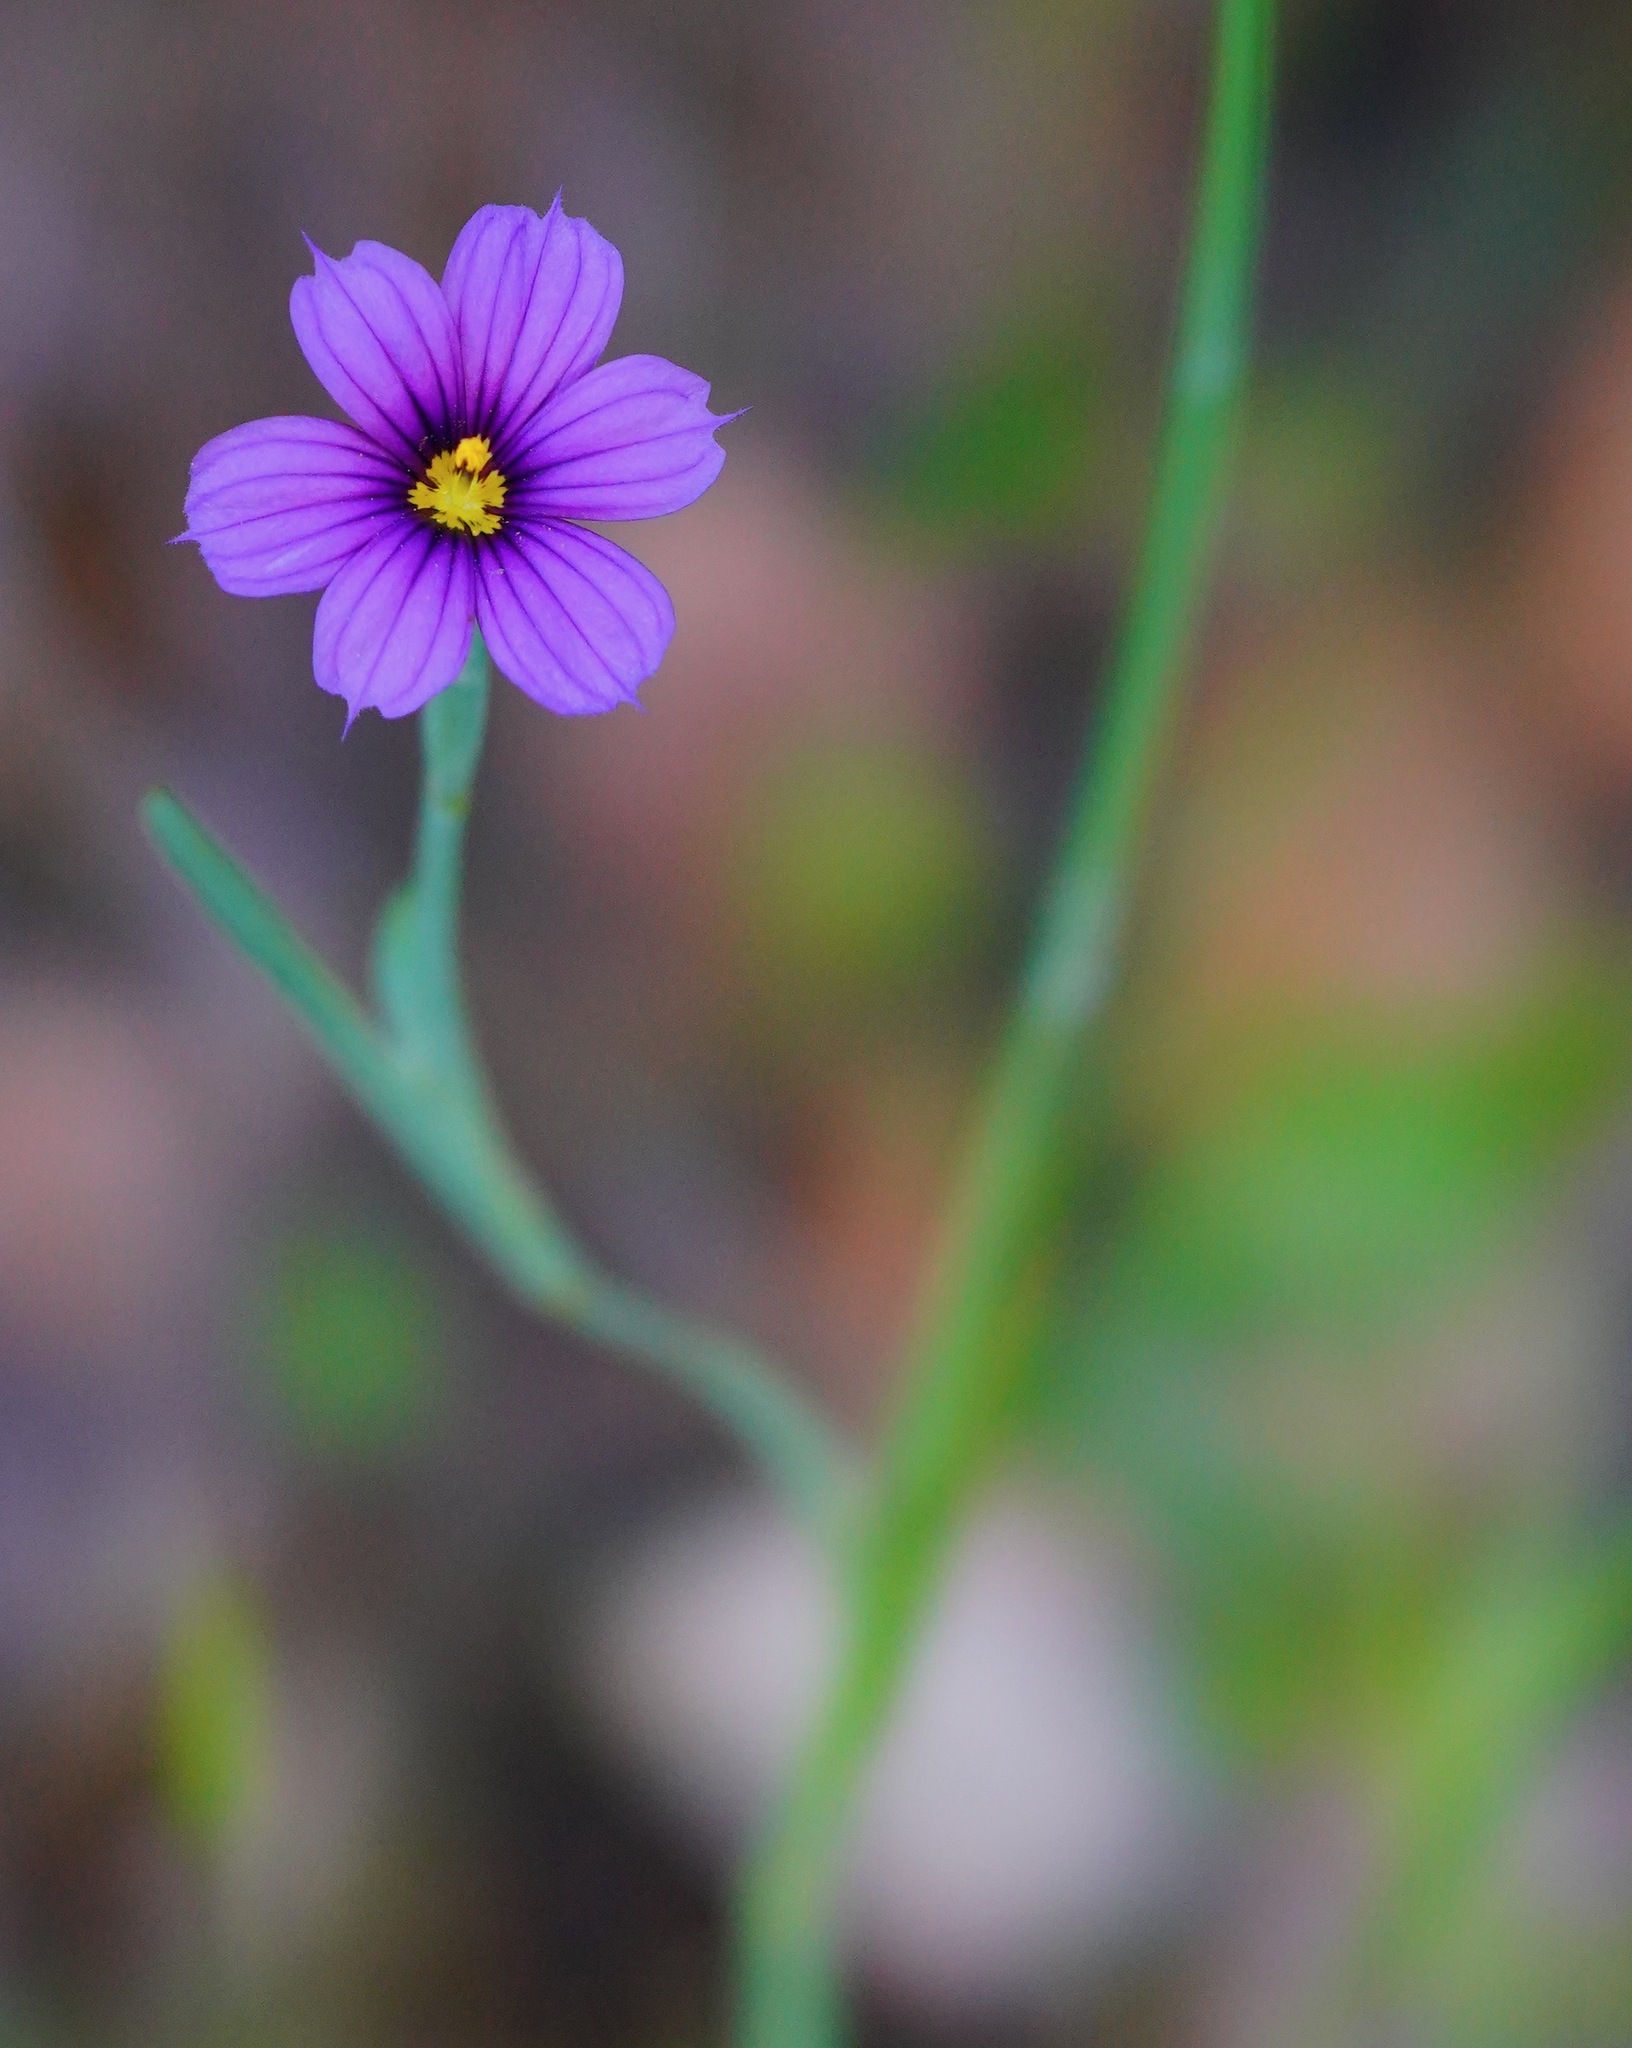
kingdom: Plantae
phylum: Tracheophyta
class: Liliopsida
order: Asparagales
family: Iridaceae
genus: Sisyrinchium
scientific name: Sisyrinchium bellum
